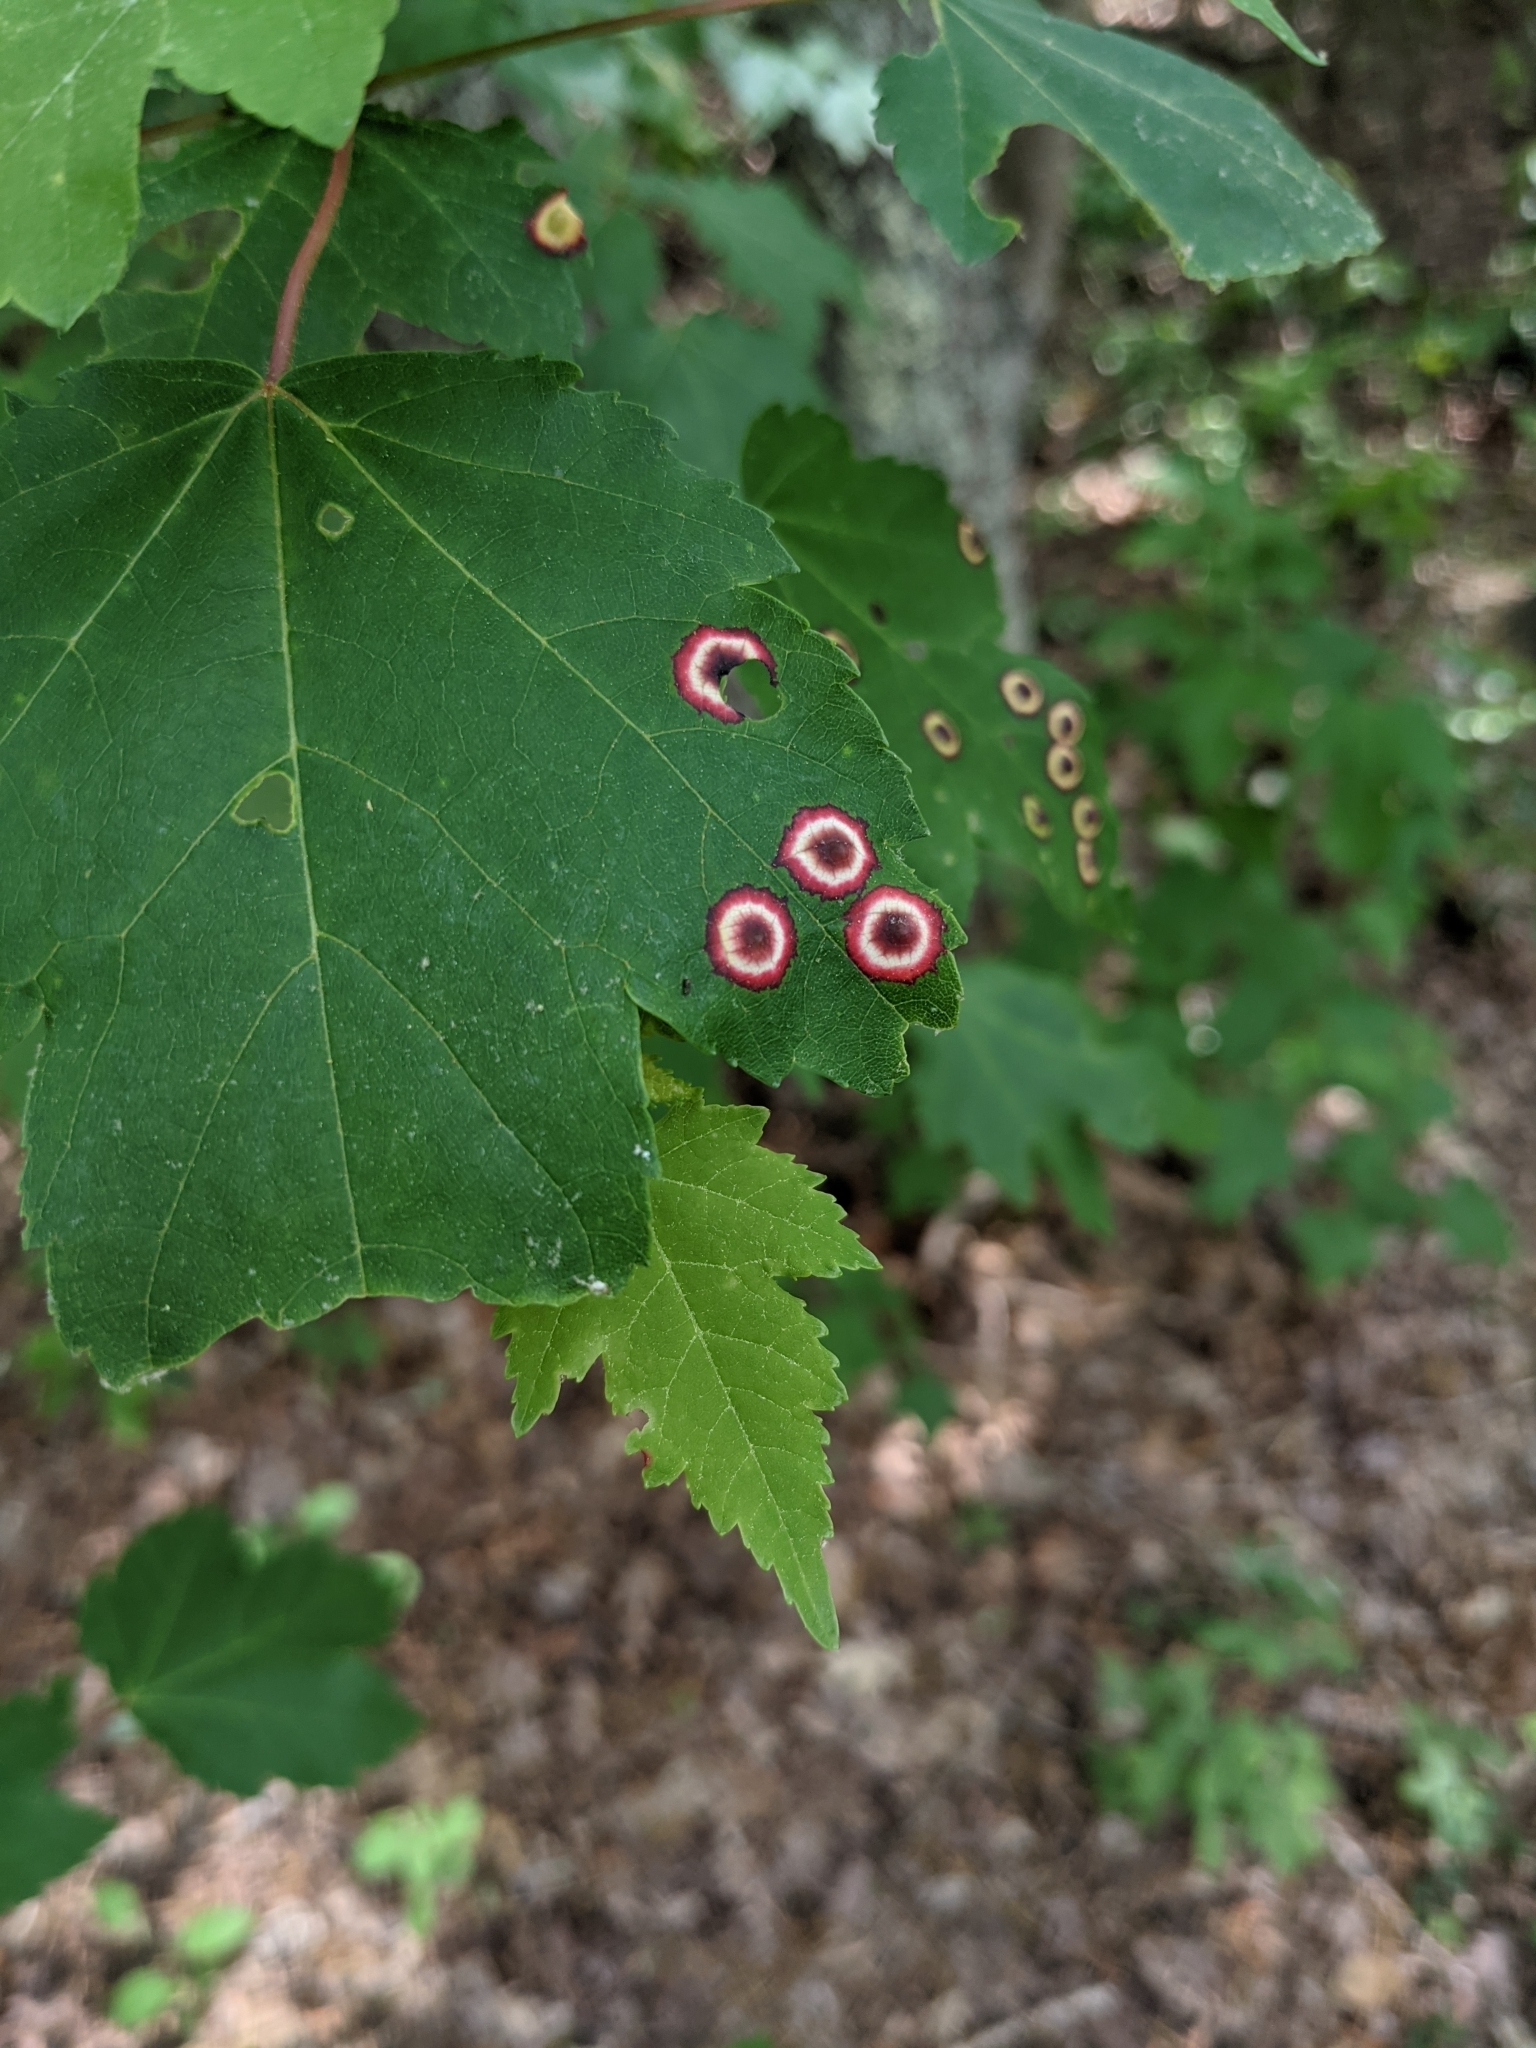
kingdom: Animalia
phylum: Arthropoda
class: Insecta
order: Diptera
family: Cecidomyiidae
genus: Acericecis
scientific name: Acericecis ocellaris
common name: Ocellate gall midge
